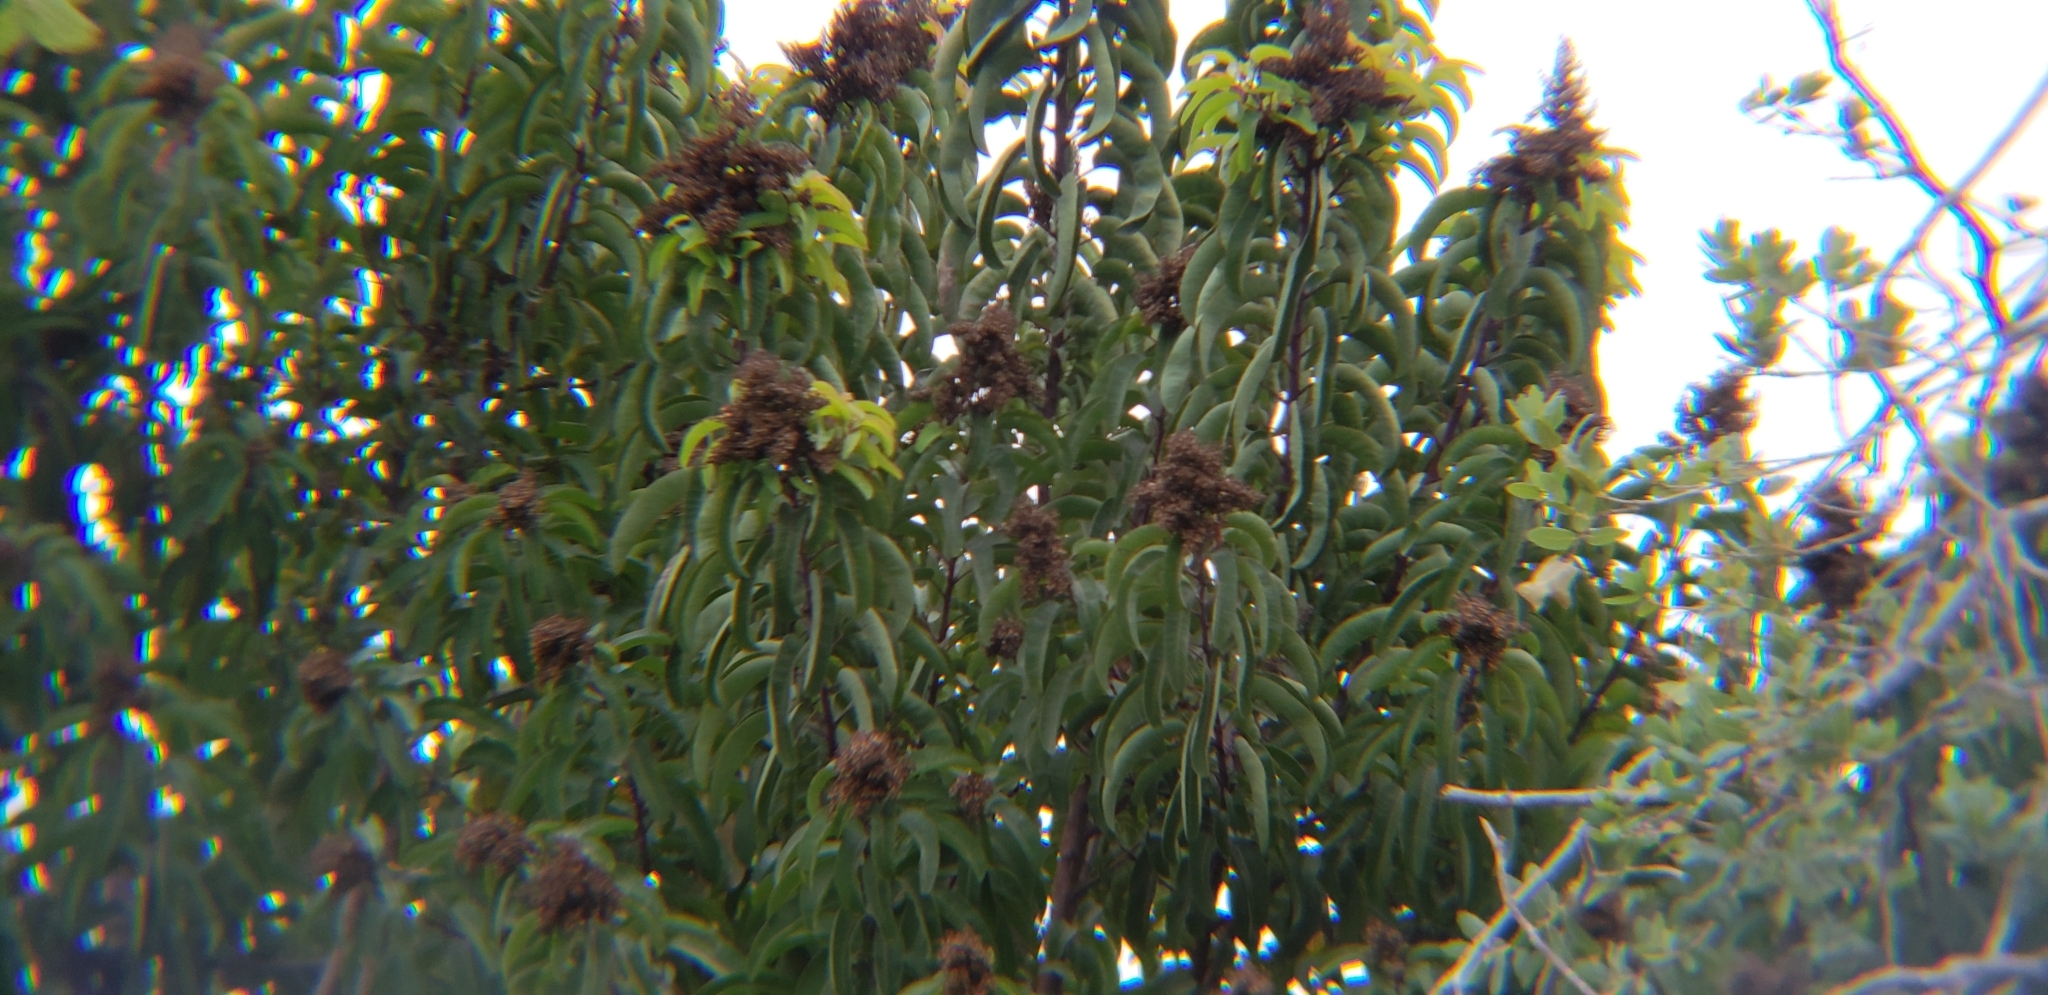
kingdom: Plantae
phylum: Tracheophyta
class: Magnoliopsida
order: Sapindales
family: Anacardiaceae
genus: Malosma
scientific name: Malosma laurina
